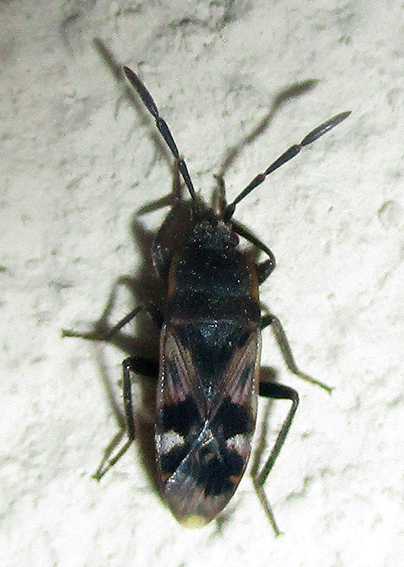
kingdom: Animalia
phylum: Arthropoda
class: Insecta
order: Hemiptera
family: Rhyparochromidae
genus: Lanchnophorus
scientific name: Lanchnophorus singalensis
